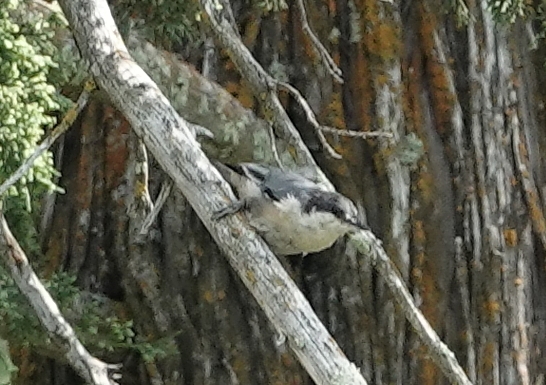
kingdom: Animalia
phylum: Chordata
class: Aves
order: Passeriformes
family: Sittidae
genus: Sitta
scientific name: Sitta pygmaea
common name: Pygmy nuthatch
